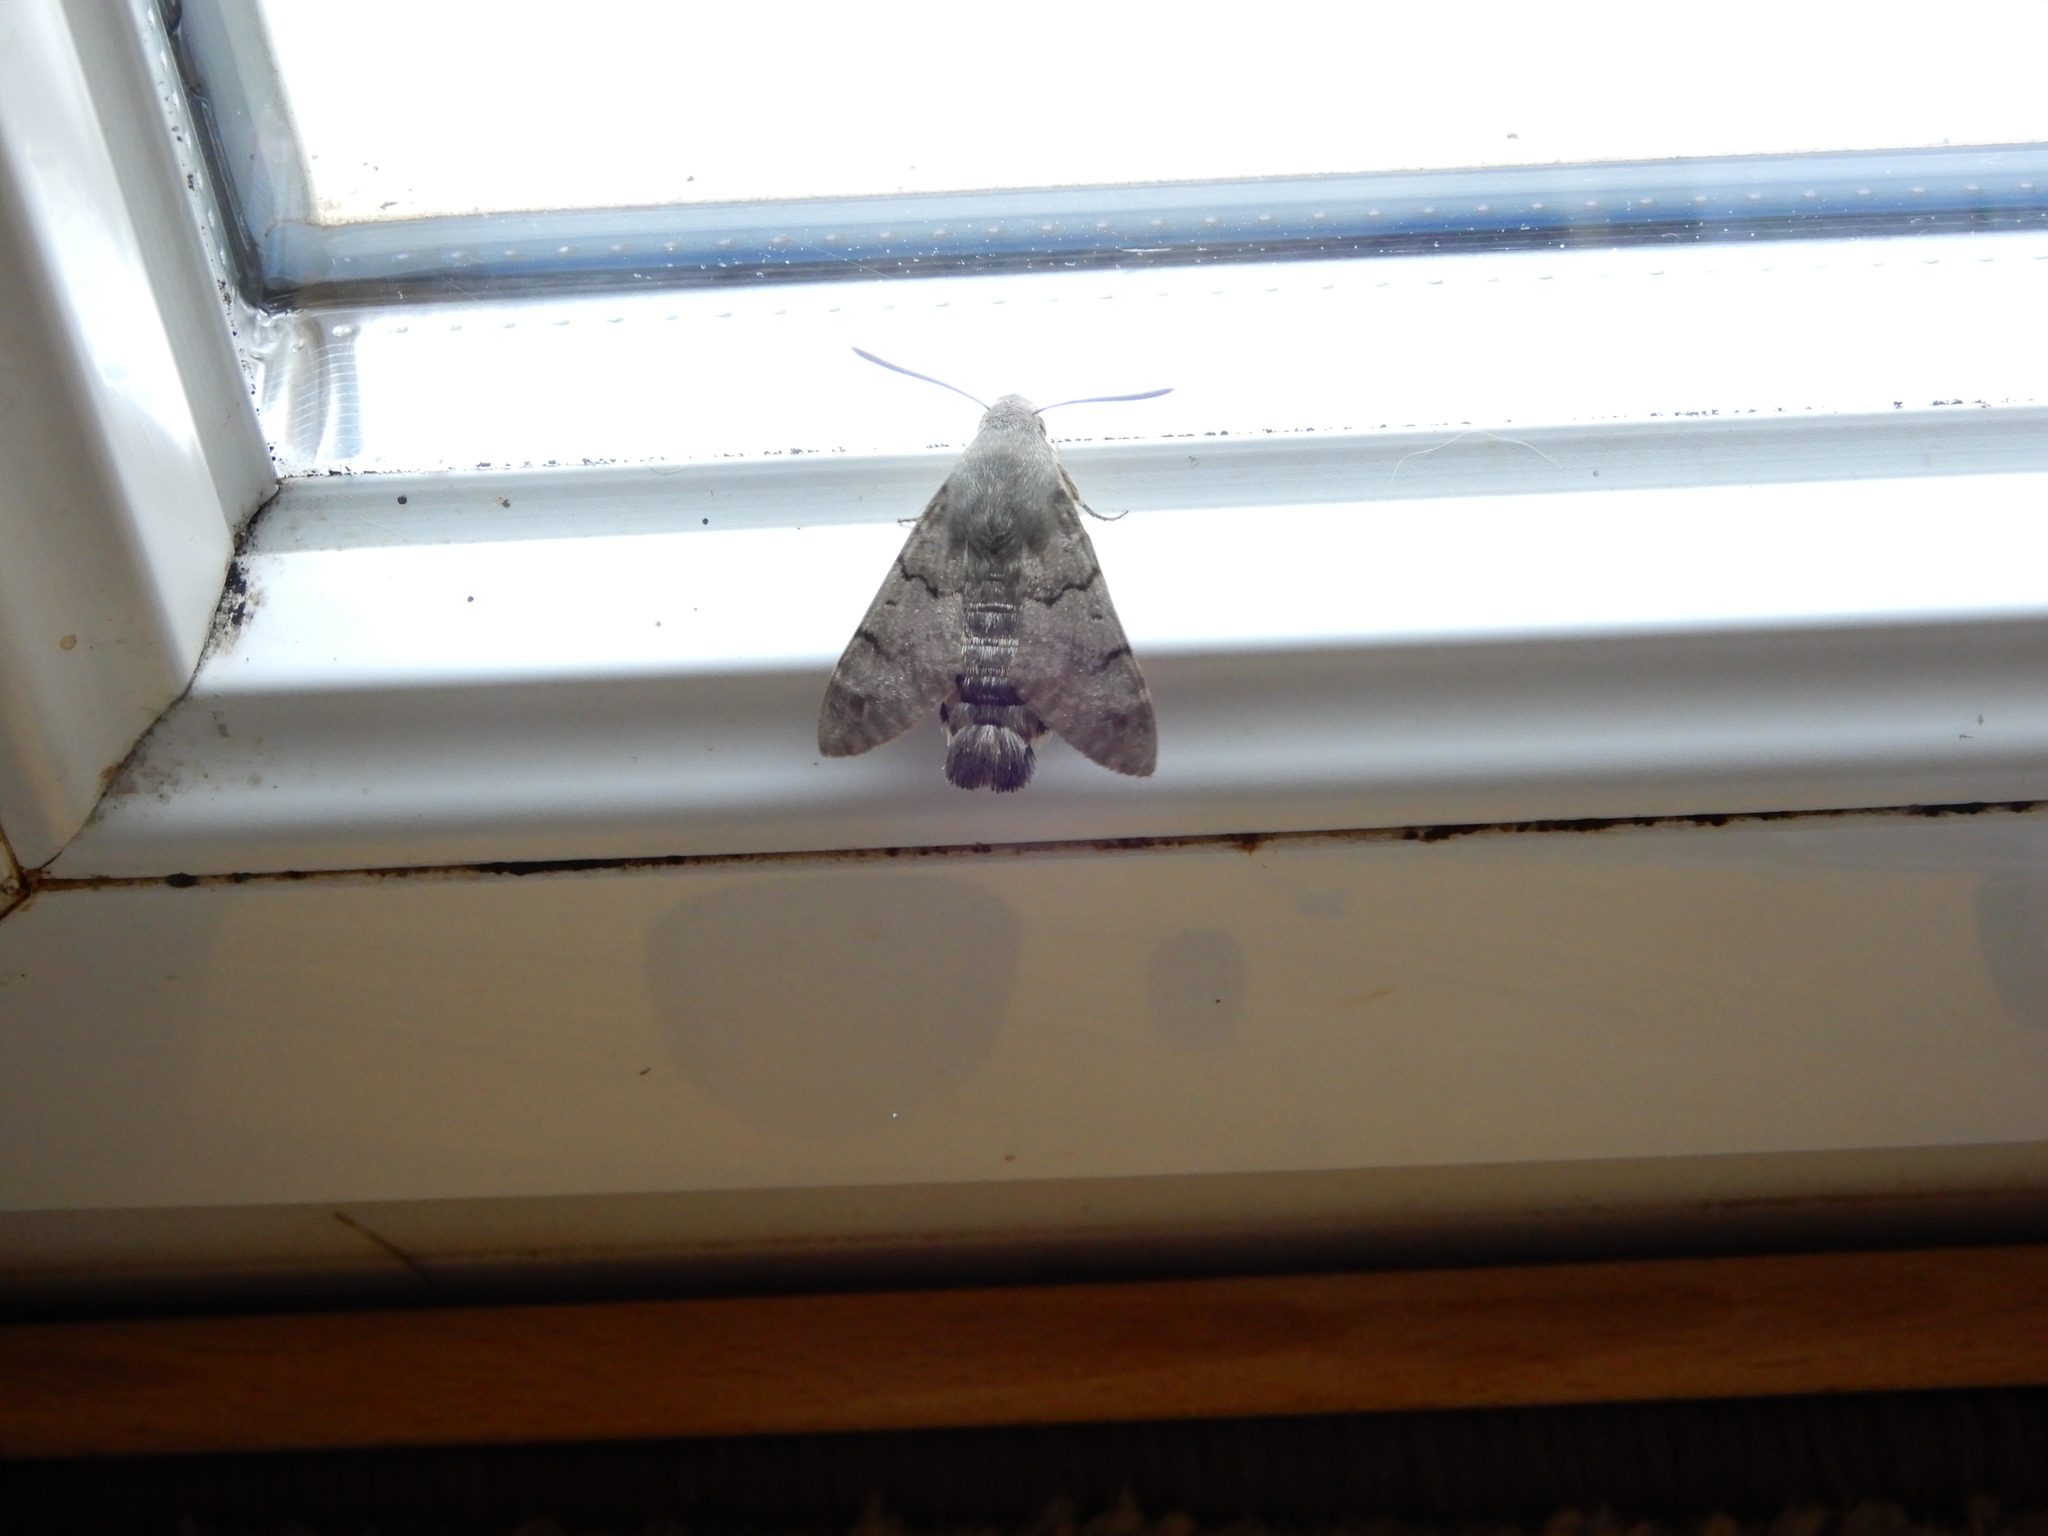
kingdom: Animalia
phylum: Arthropoda
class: Insecta
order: Lepidoptera
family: Sphingidae
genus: Macroglossum
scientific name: Macroglossum stellatarum
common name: Humming-bird hawk-moth
